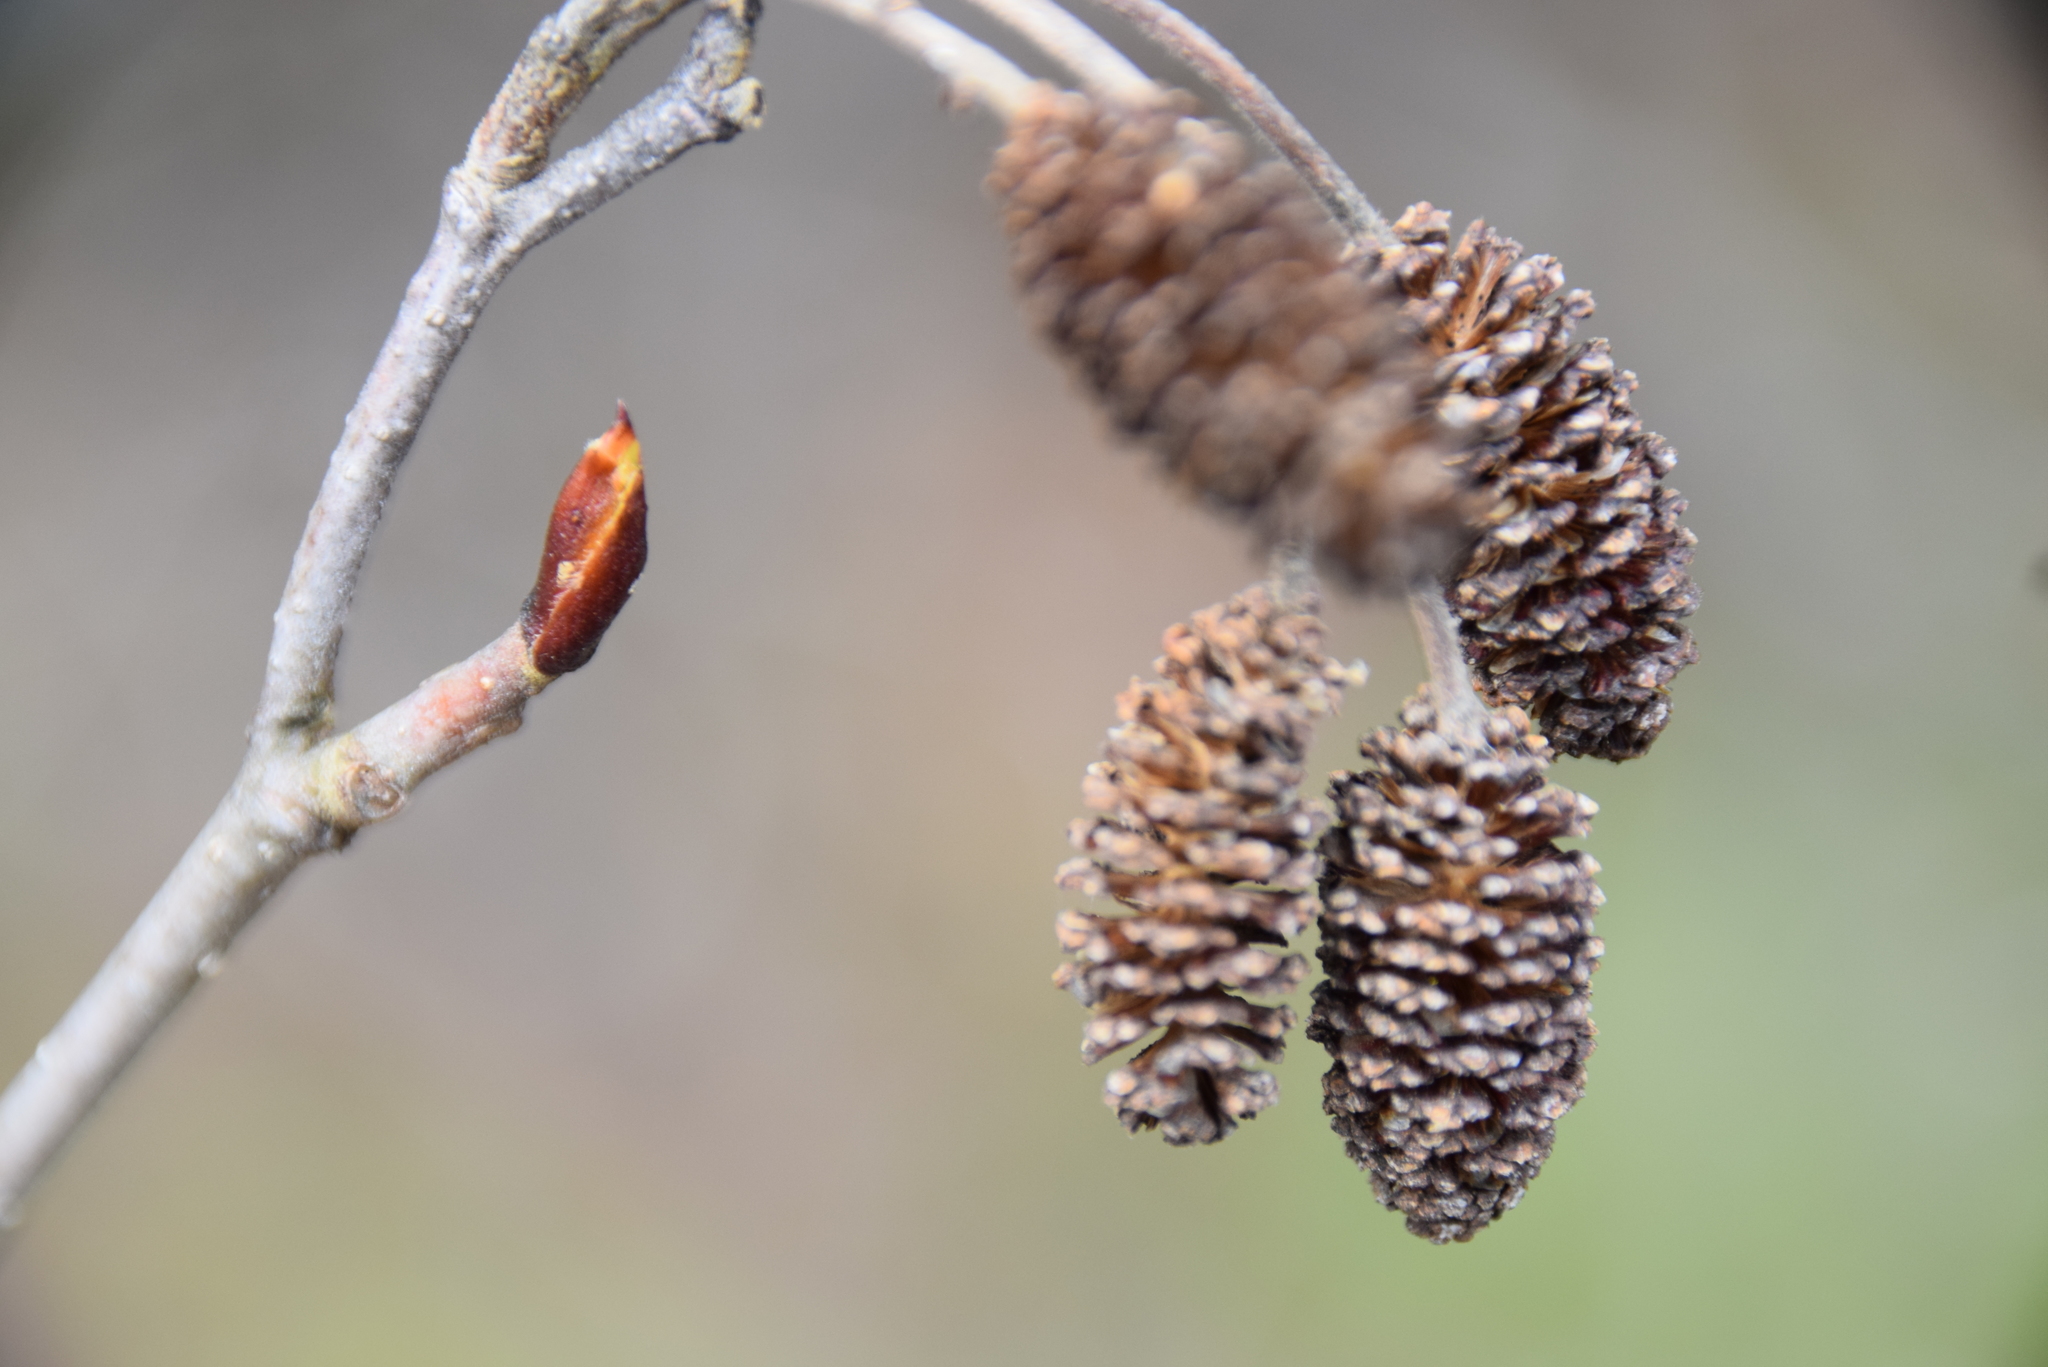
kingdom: Plantae
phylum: Tracheophyta
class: Magnoliopsida
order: Fagales
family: Betulaceae
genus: Alnus
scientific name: Alnus alnobetula
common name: Green alder
